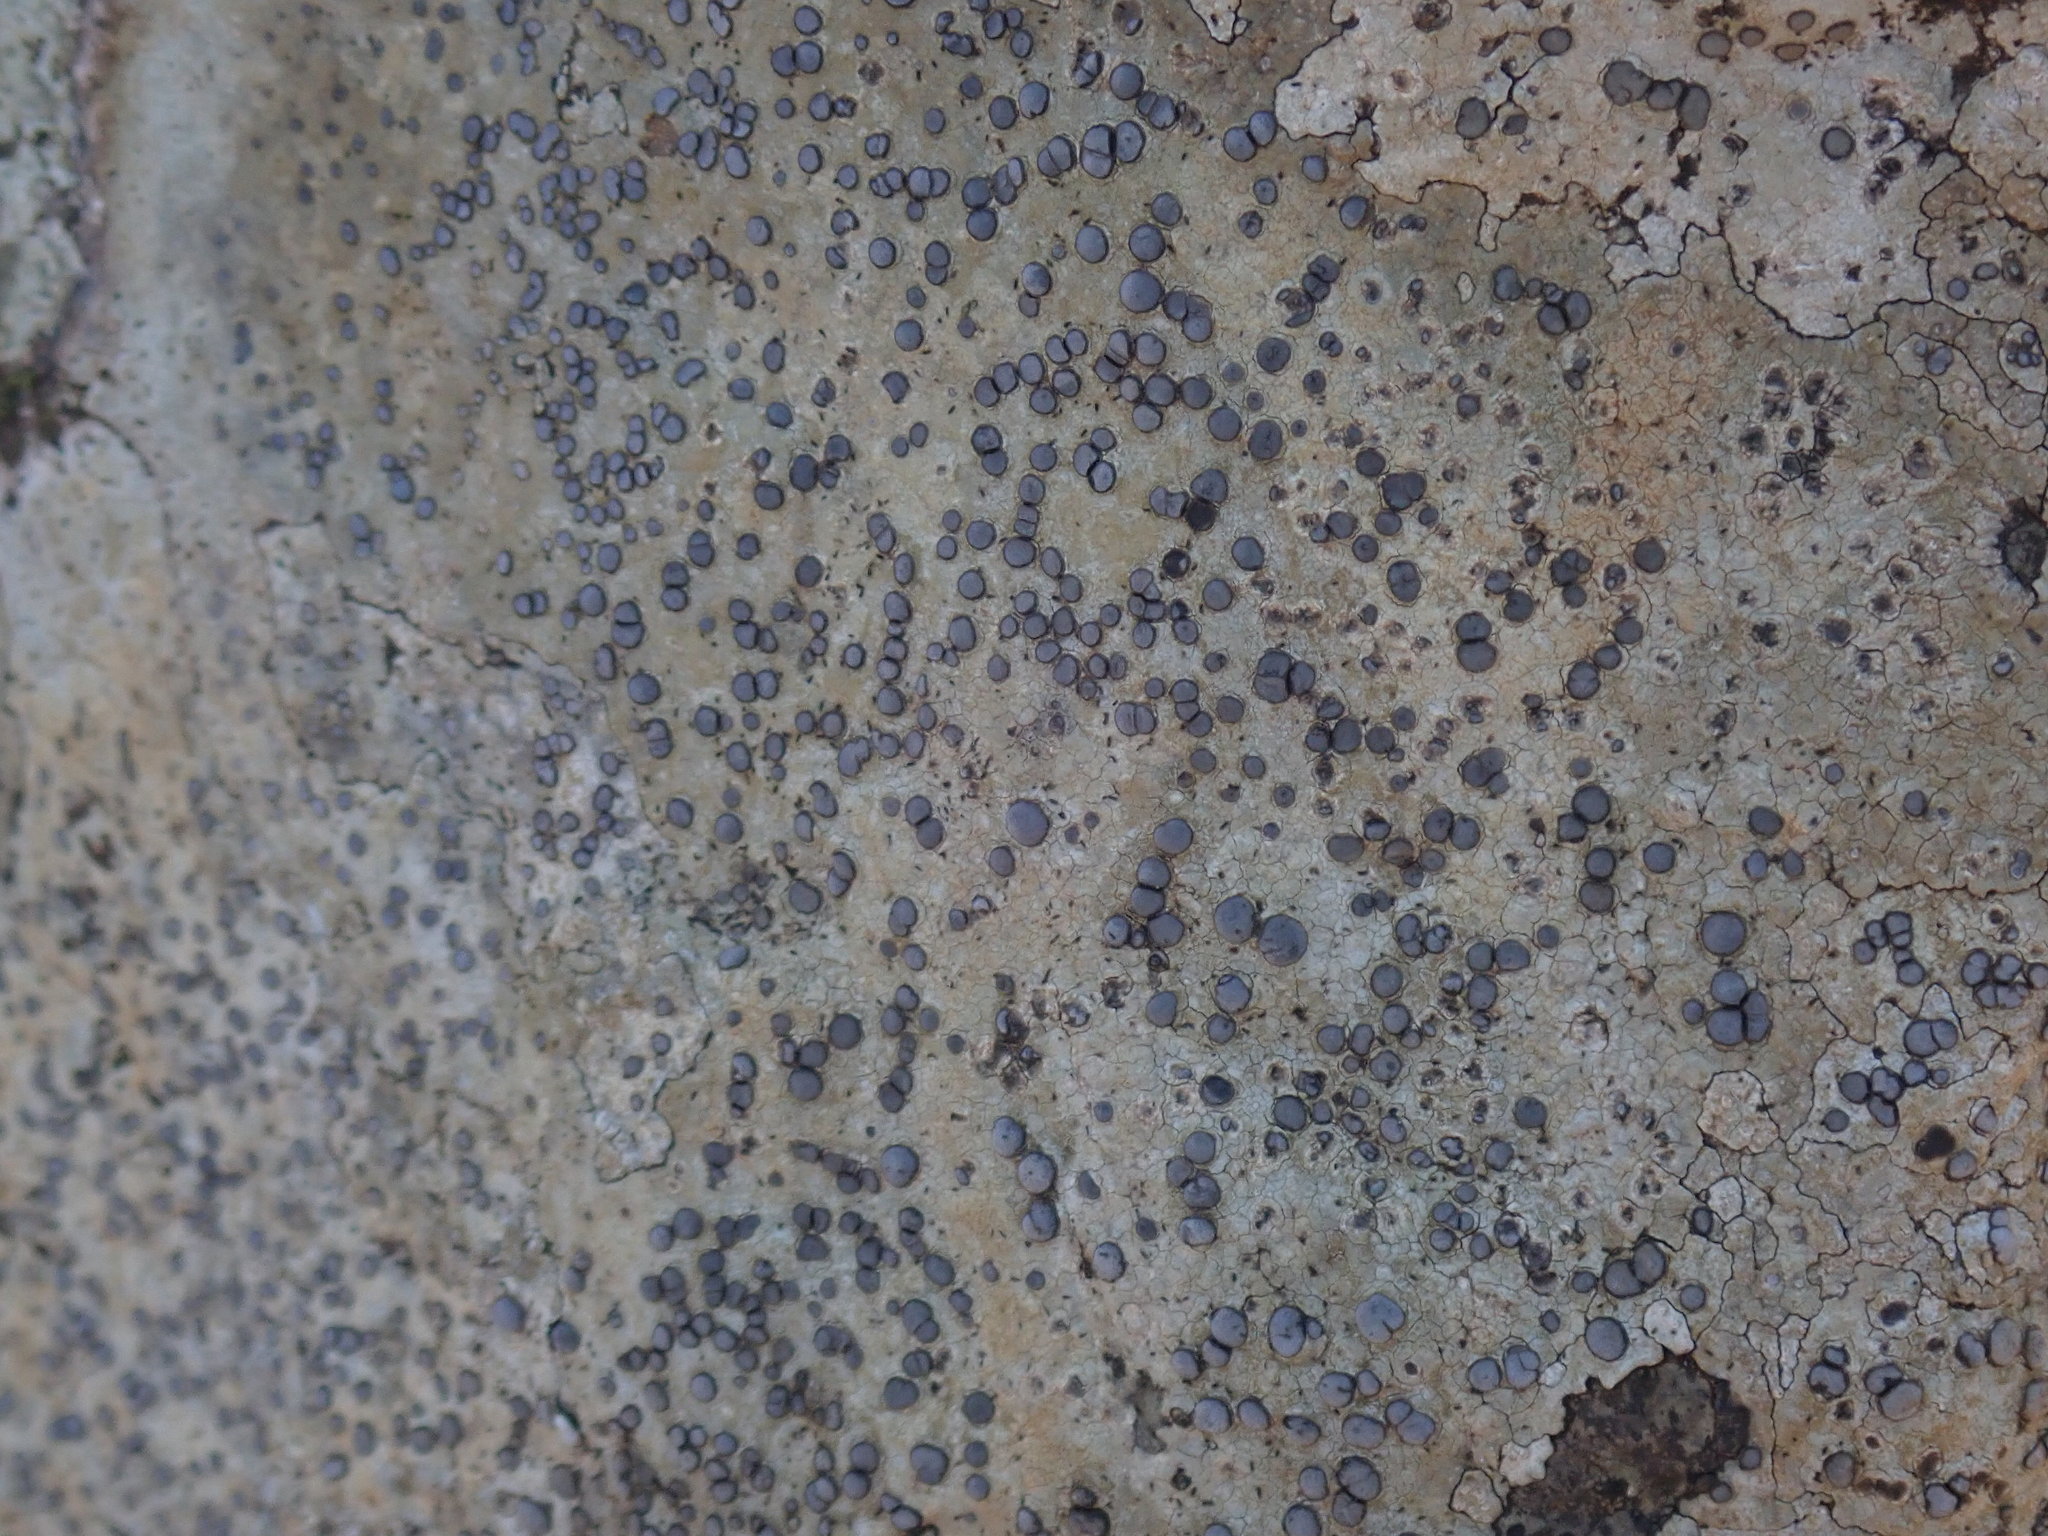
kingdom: Fungi
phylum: Ascomycota
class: Lecanoromycetes
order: Lecideales
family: Lecideaceae
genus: Porpidia
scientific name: Porpidia albocaerulescens
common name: Smokey-eyed boulder lichen
